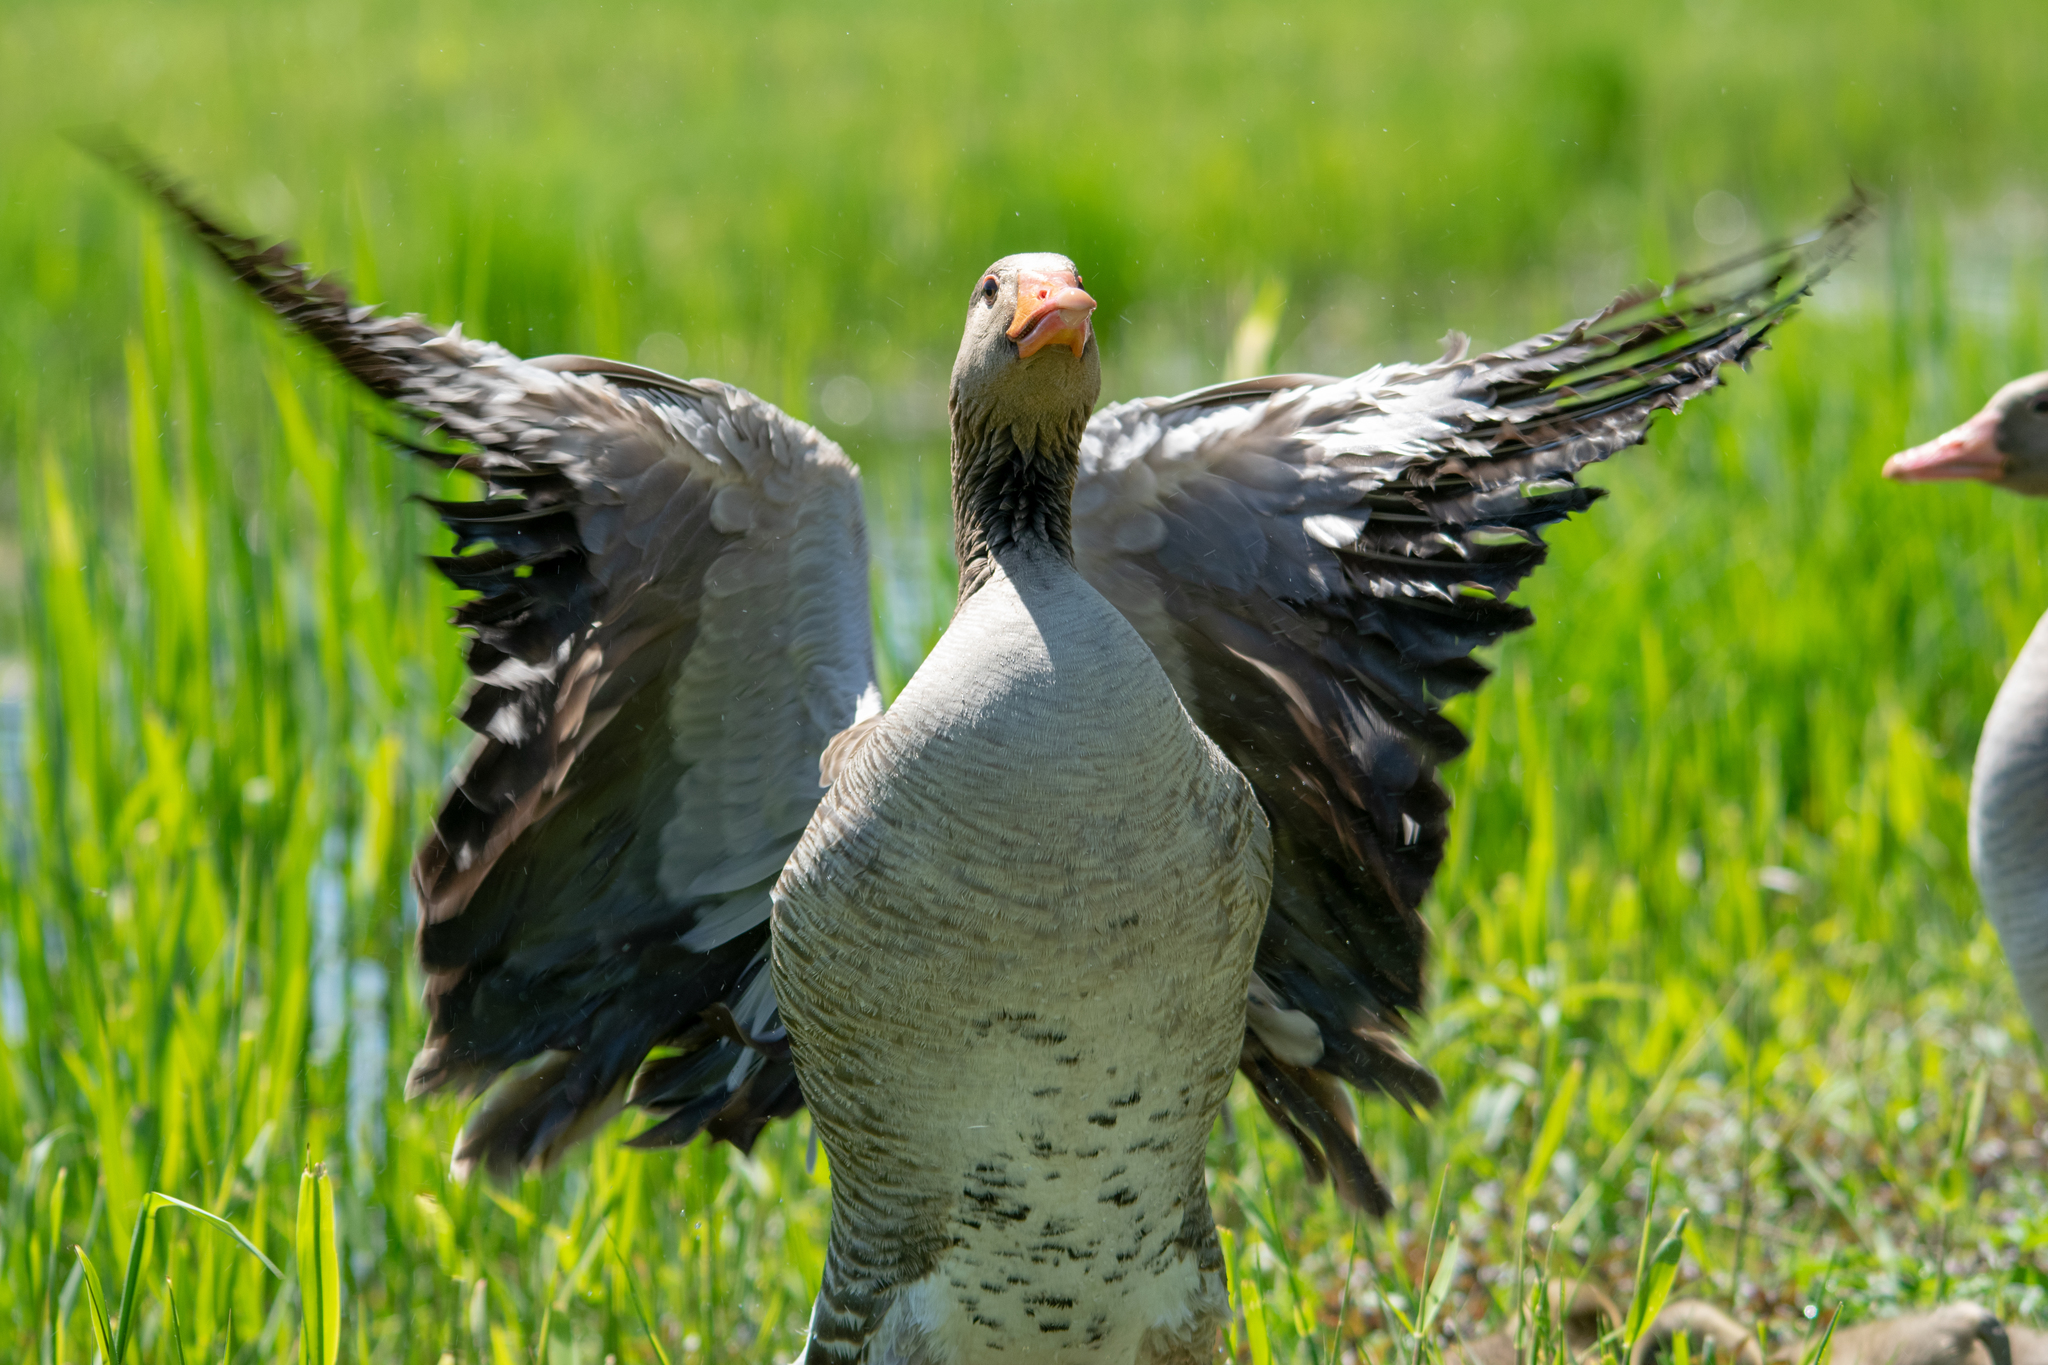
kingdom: Animalia
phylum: Chordata
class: Aves
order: Anseriformes
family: Anatidae
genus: Anser
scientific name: Anser anser
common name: Greylag goose
